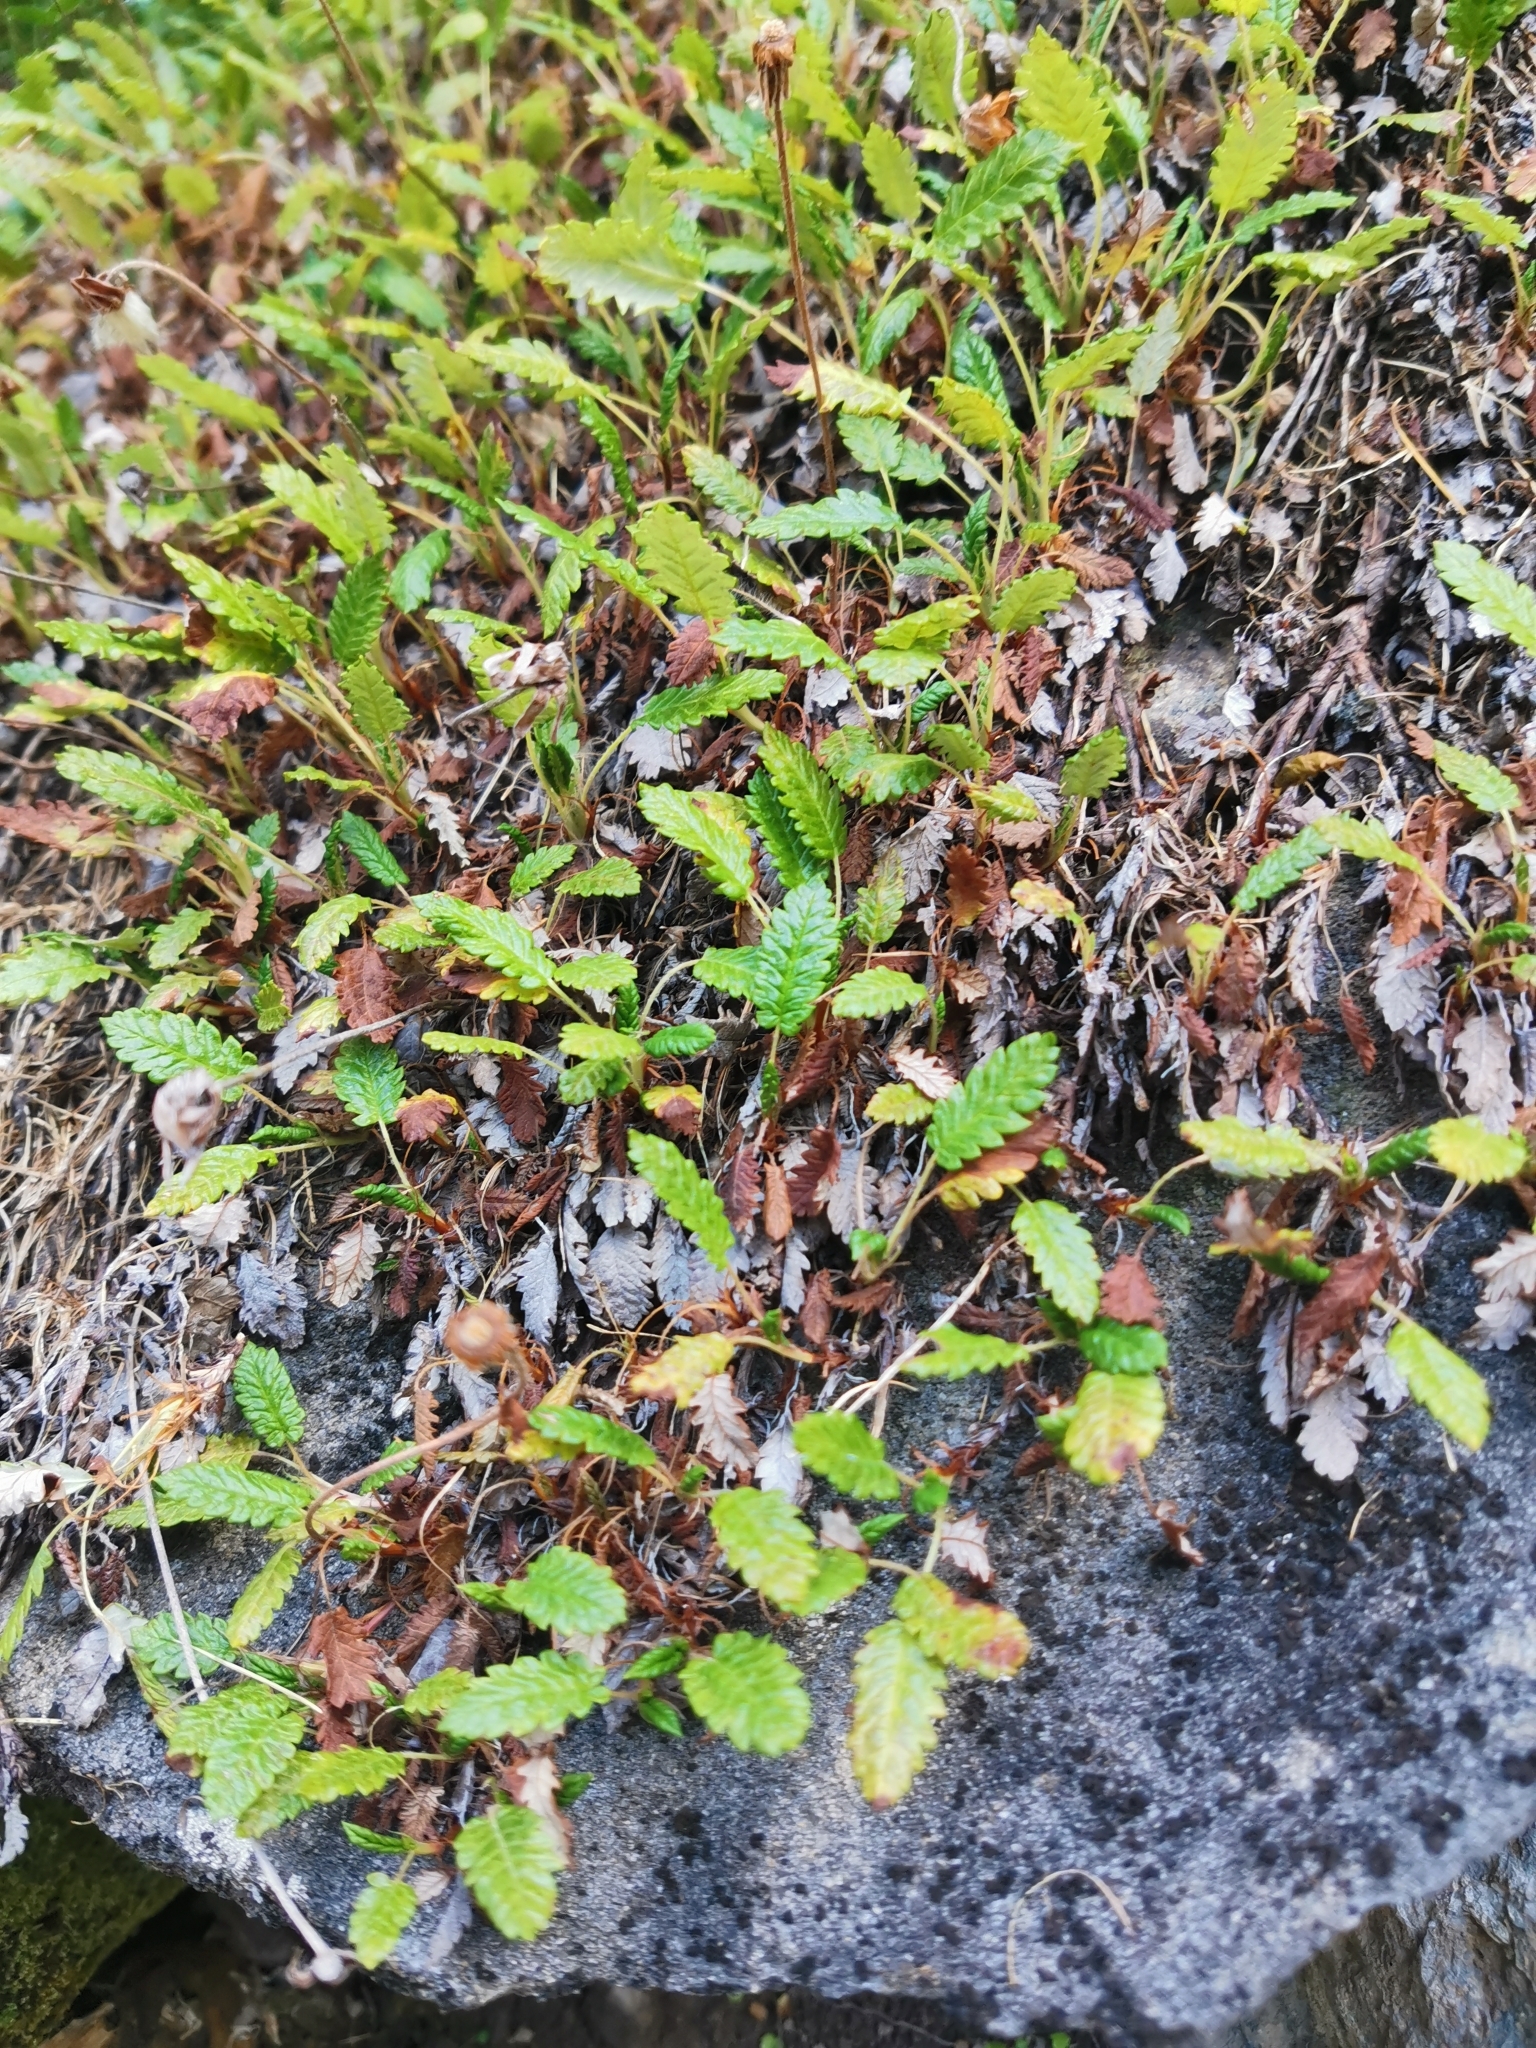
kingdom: Plantae
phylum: Tracheophyta
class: Magnoliopsida
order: Rosales
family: Rosaceae
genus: Dryas
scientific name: Dryas octopetala
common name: Eight-petal mountain-avens
